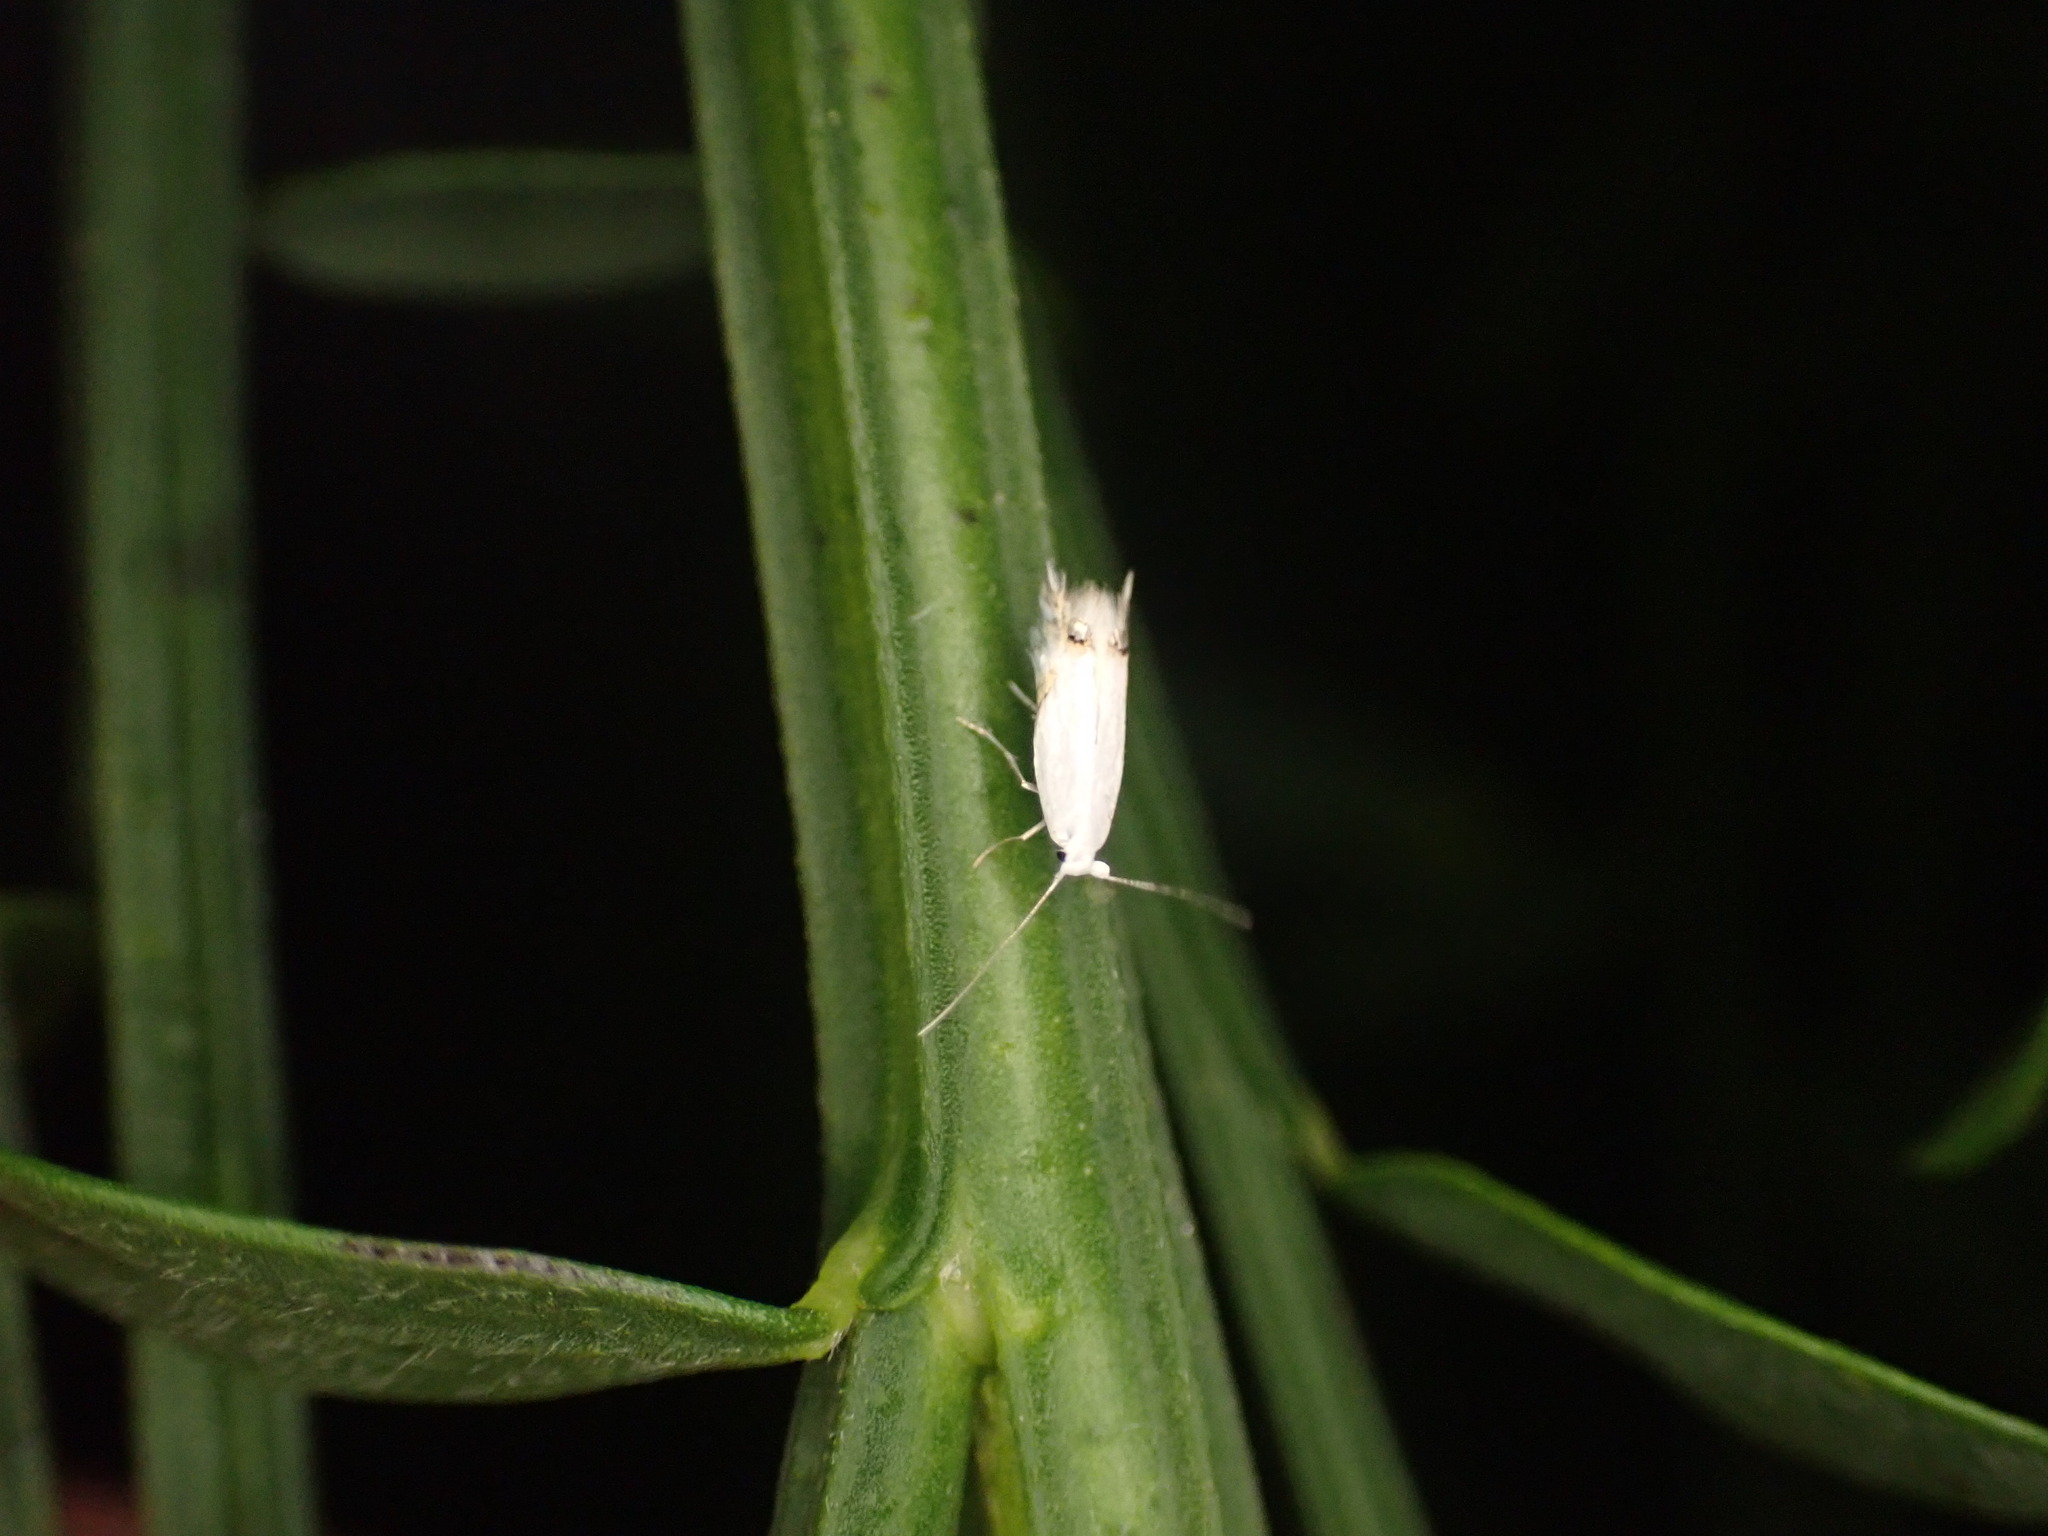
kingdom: Animalia
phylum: Arthropoda
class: Insecta
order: Lepidoptera
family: Lyonetiidae
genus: Leucoptera
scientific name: Leucoptera spartifoliella
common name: Scotch broom twig miner
